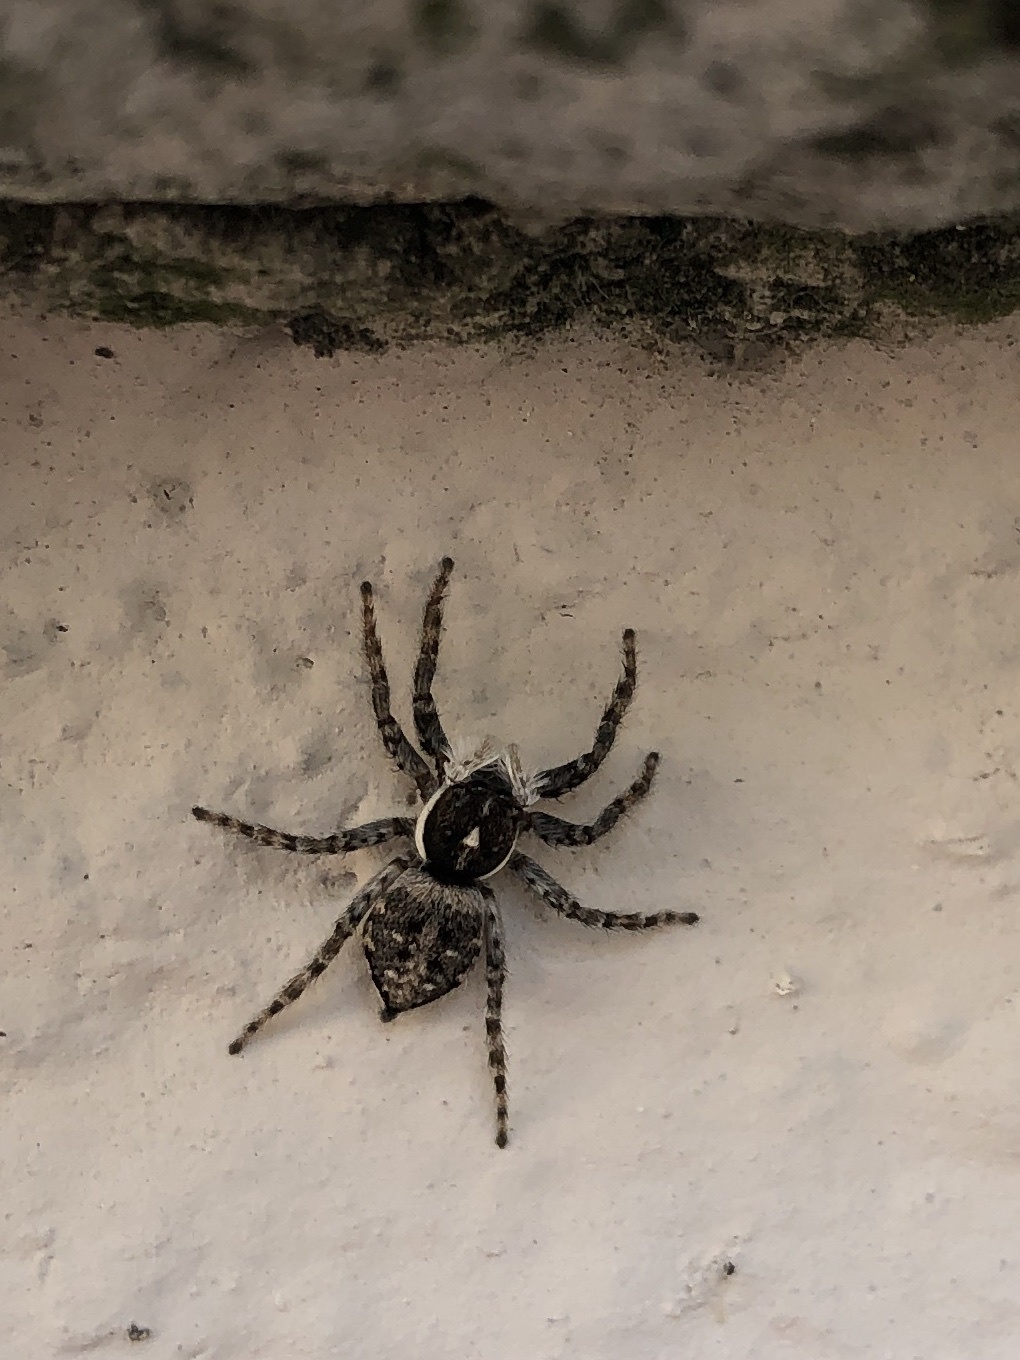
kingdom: Animalia
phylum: Arthropoda
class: Arachnida
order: Araneae
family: Salticidae
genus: Menemerus
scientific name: Menemerus semilimbatus
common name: Jumping spider
